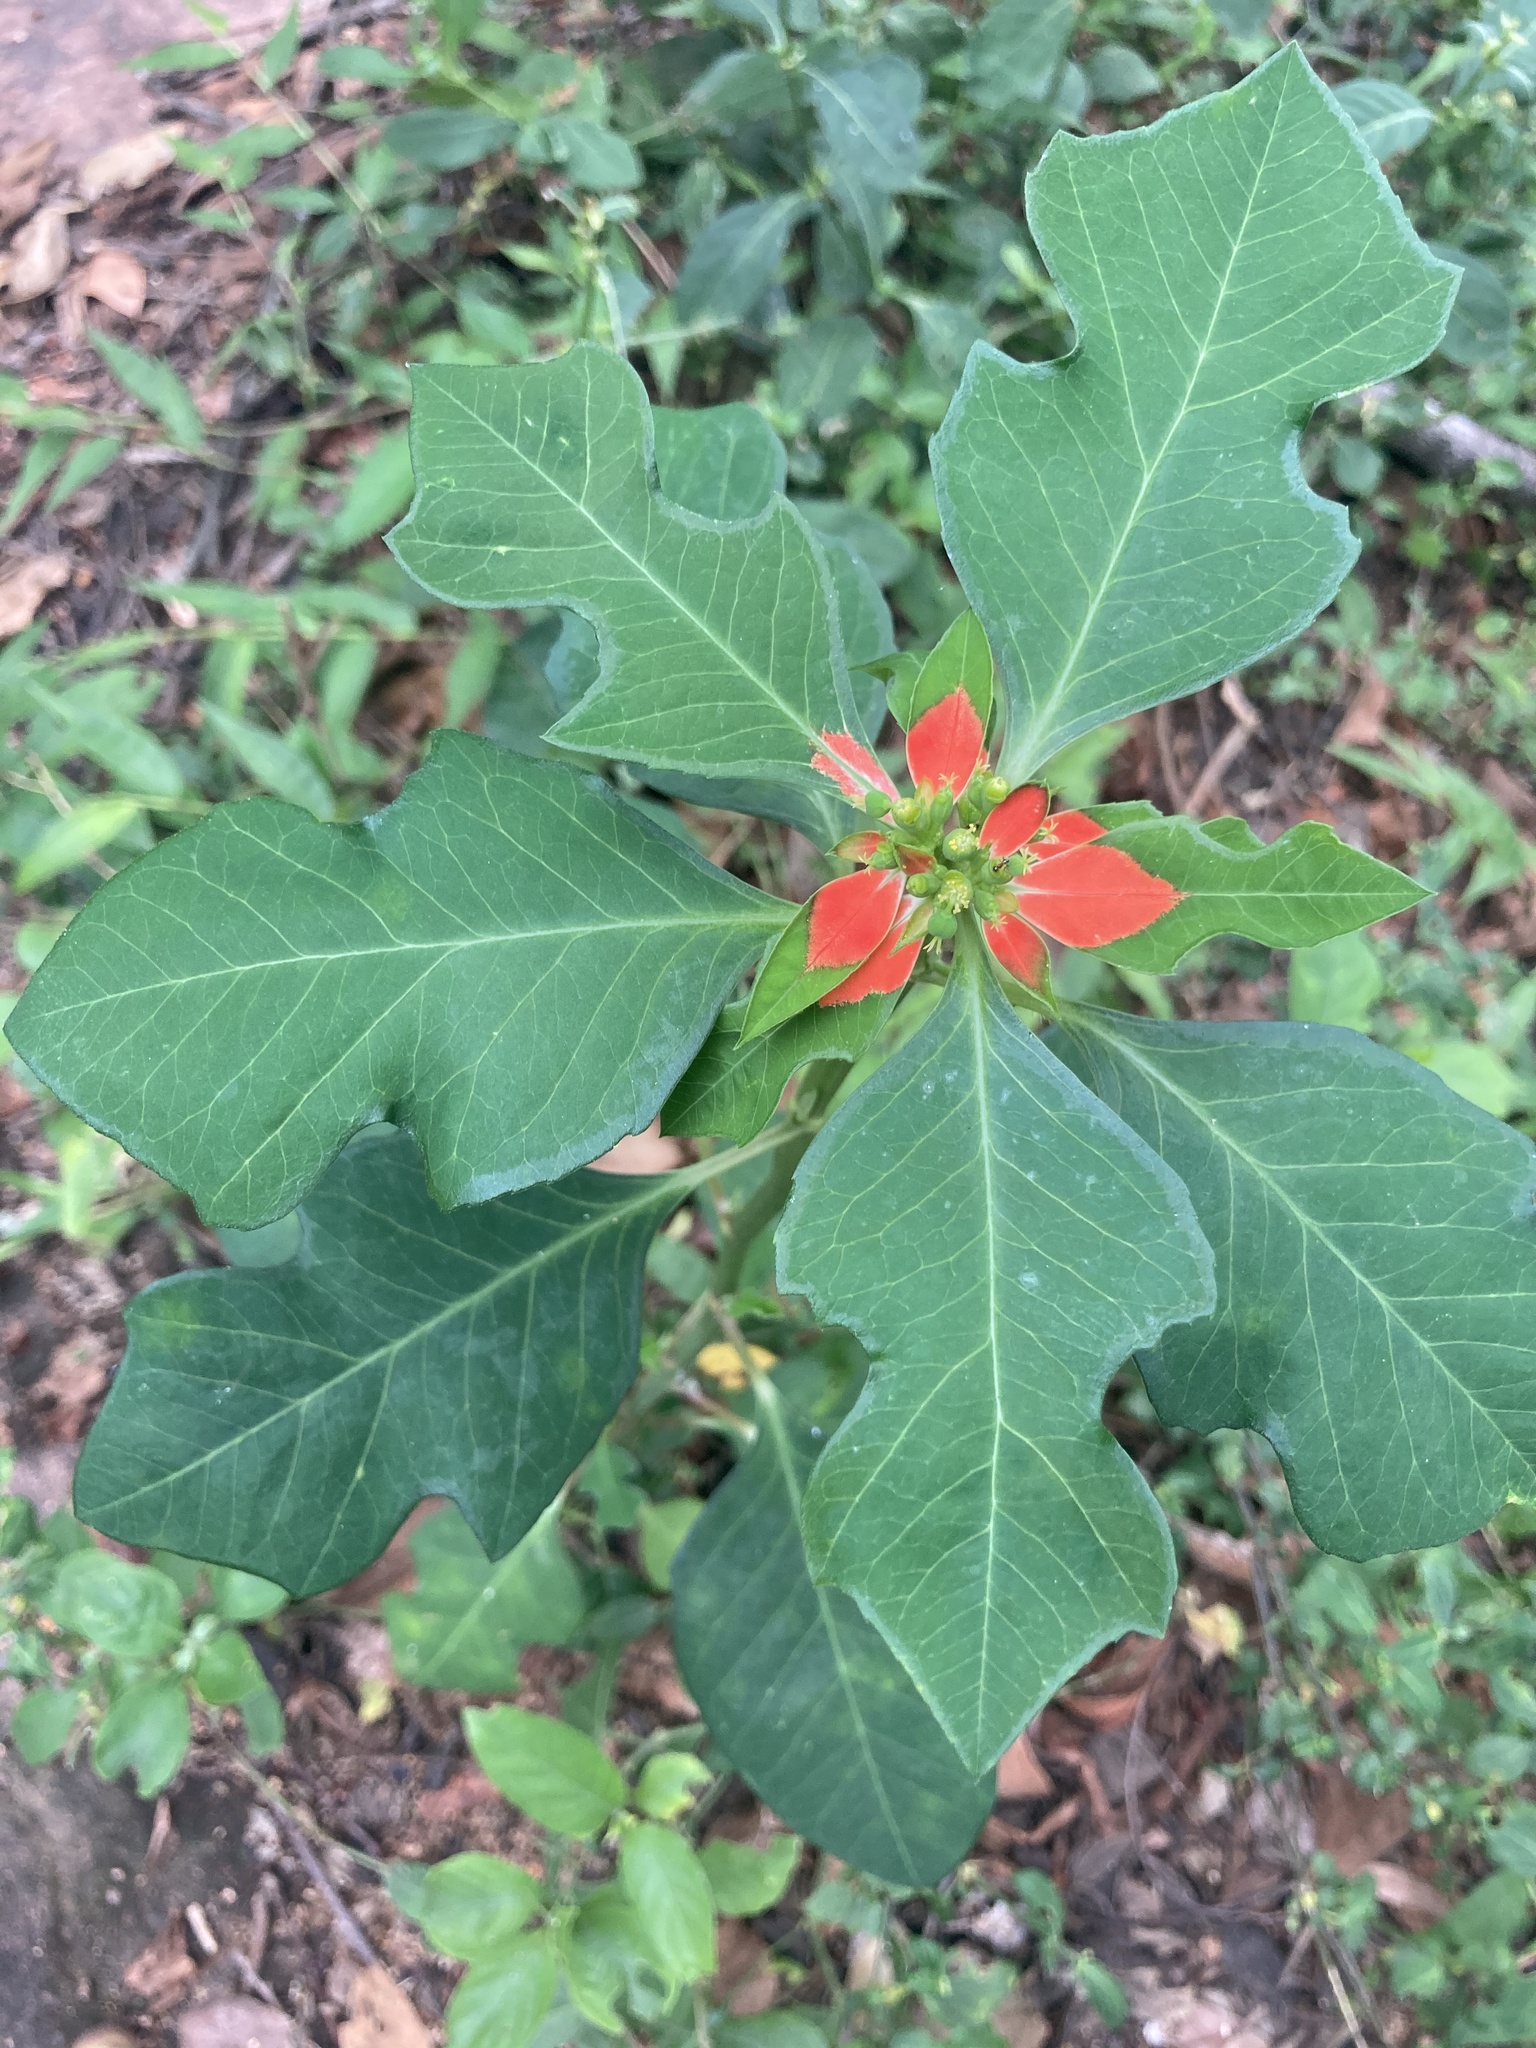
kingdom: Plantae
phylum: Tracheophyta
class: Magnoliopsida
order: Malpighiales
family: Euphorbiaceae
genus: Euphorbia
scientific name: Euphorbia heterophylla
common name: Mexican fireplant
